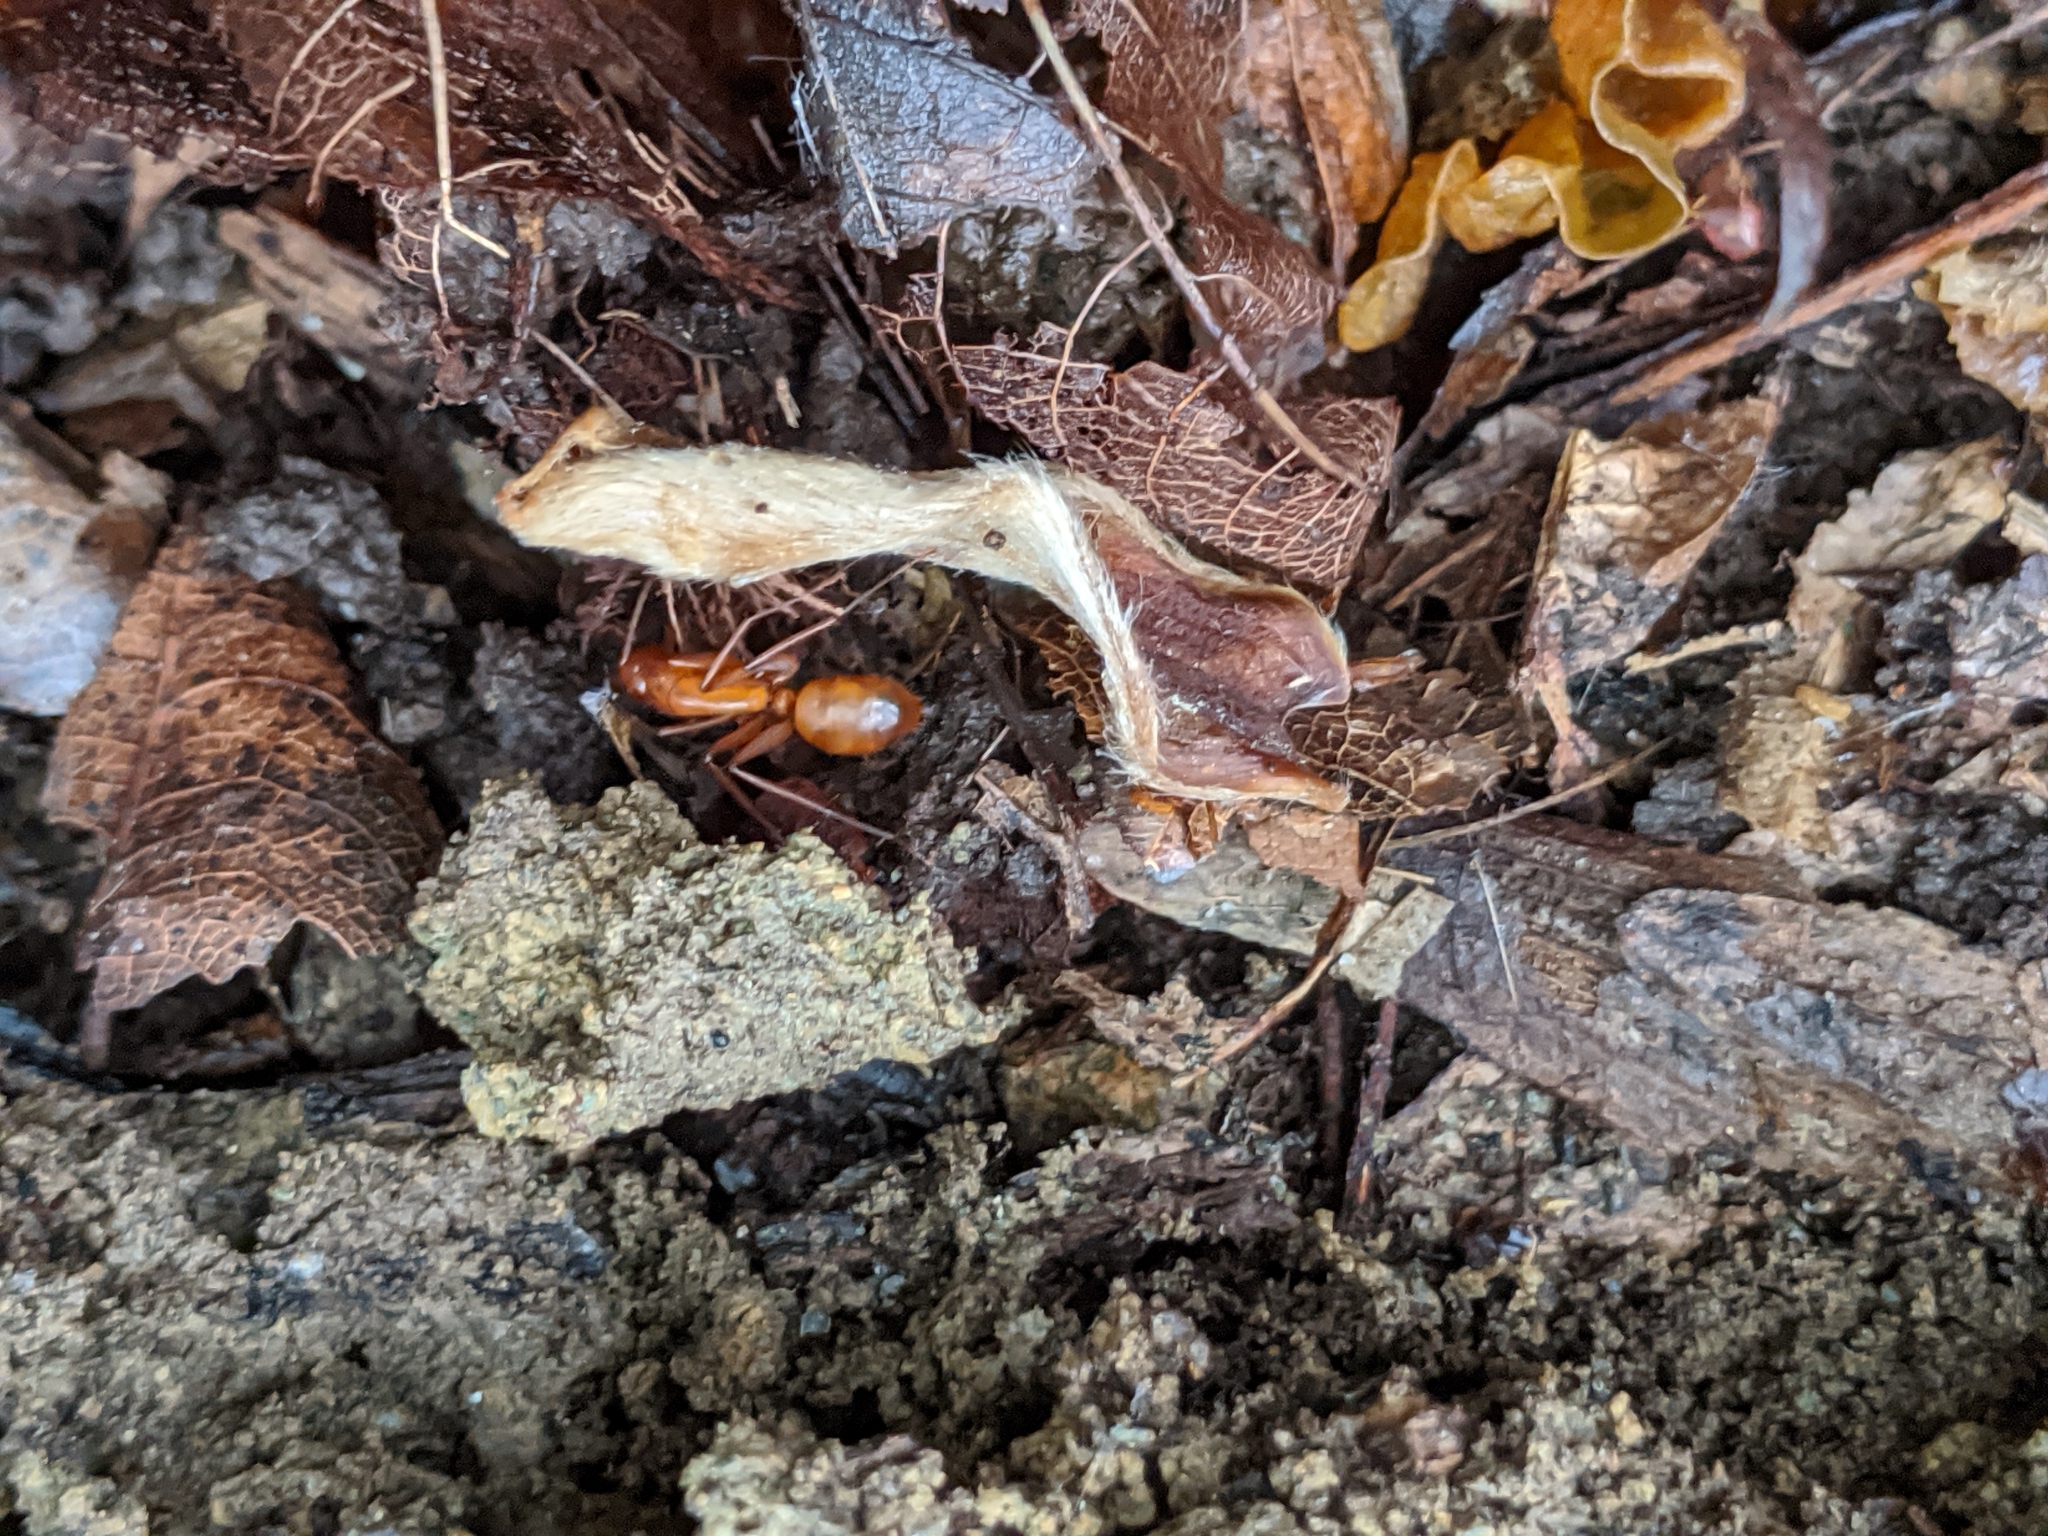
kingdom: Animalia
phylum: Arthropoda
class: Insecta
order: Hymenoptera
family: Formicidae
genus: Camponotus
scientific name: Camponotus castaneus
